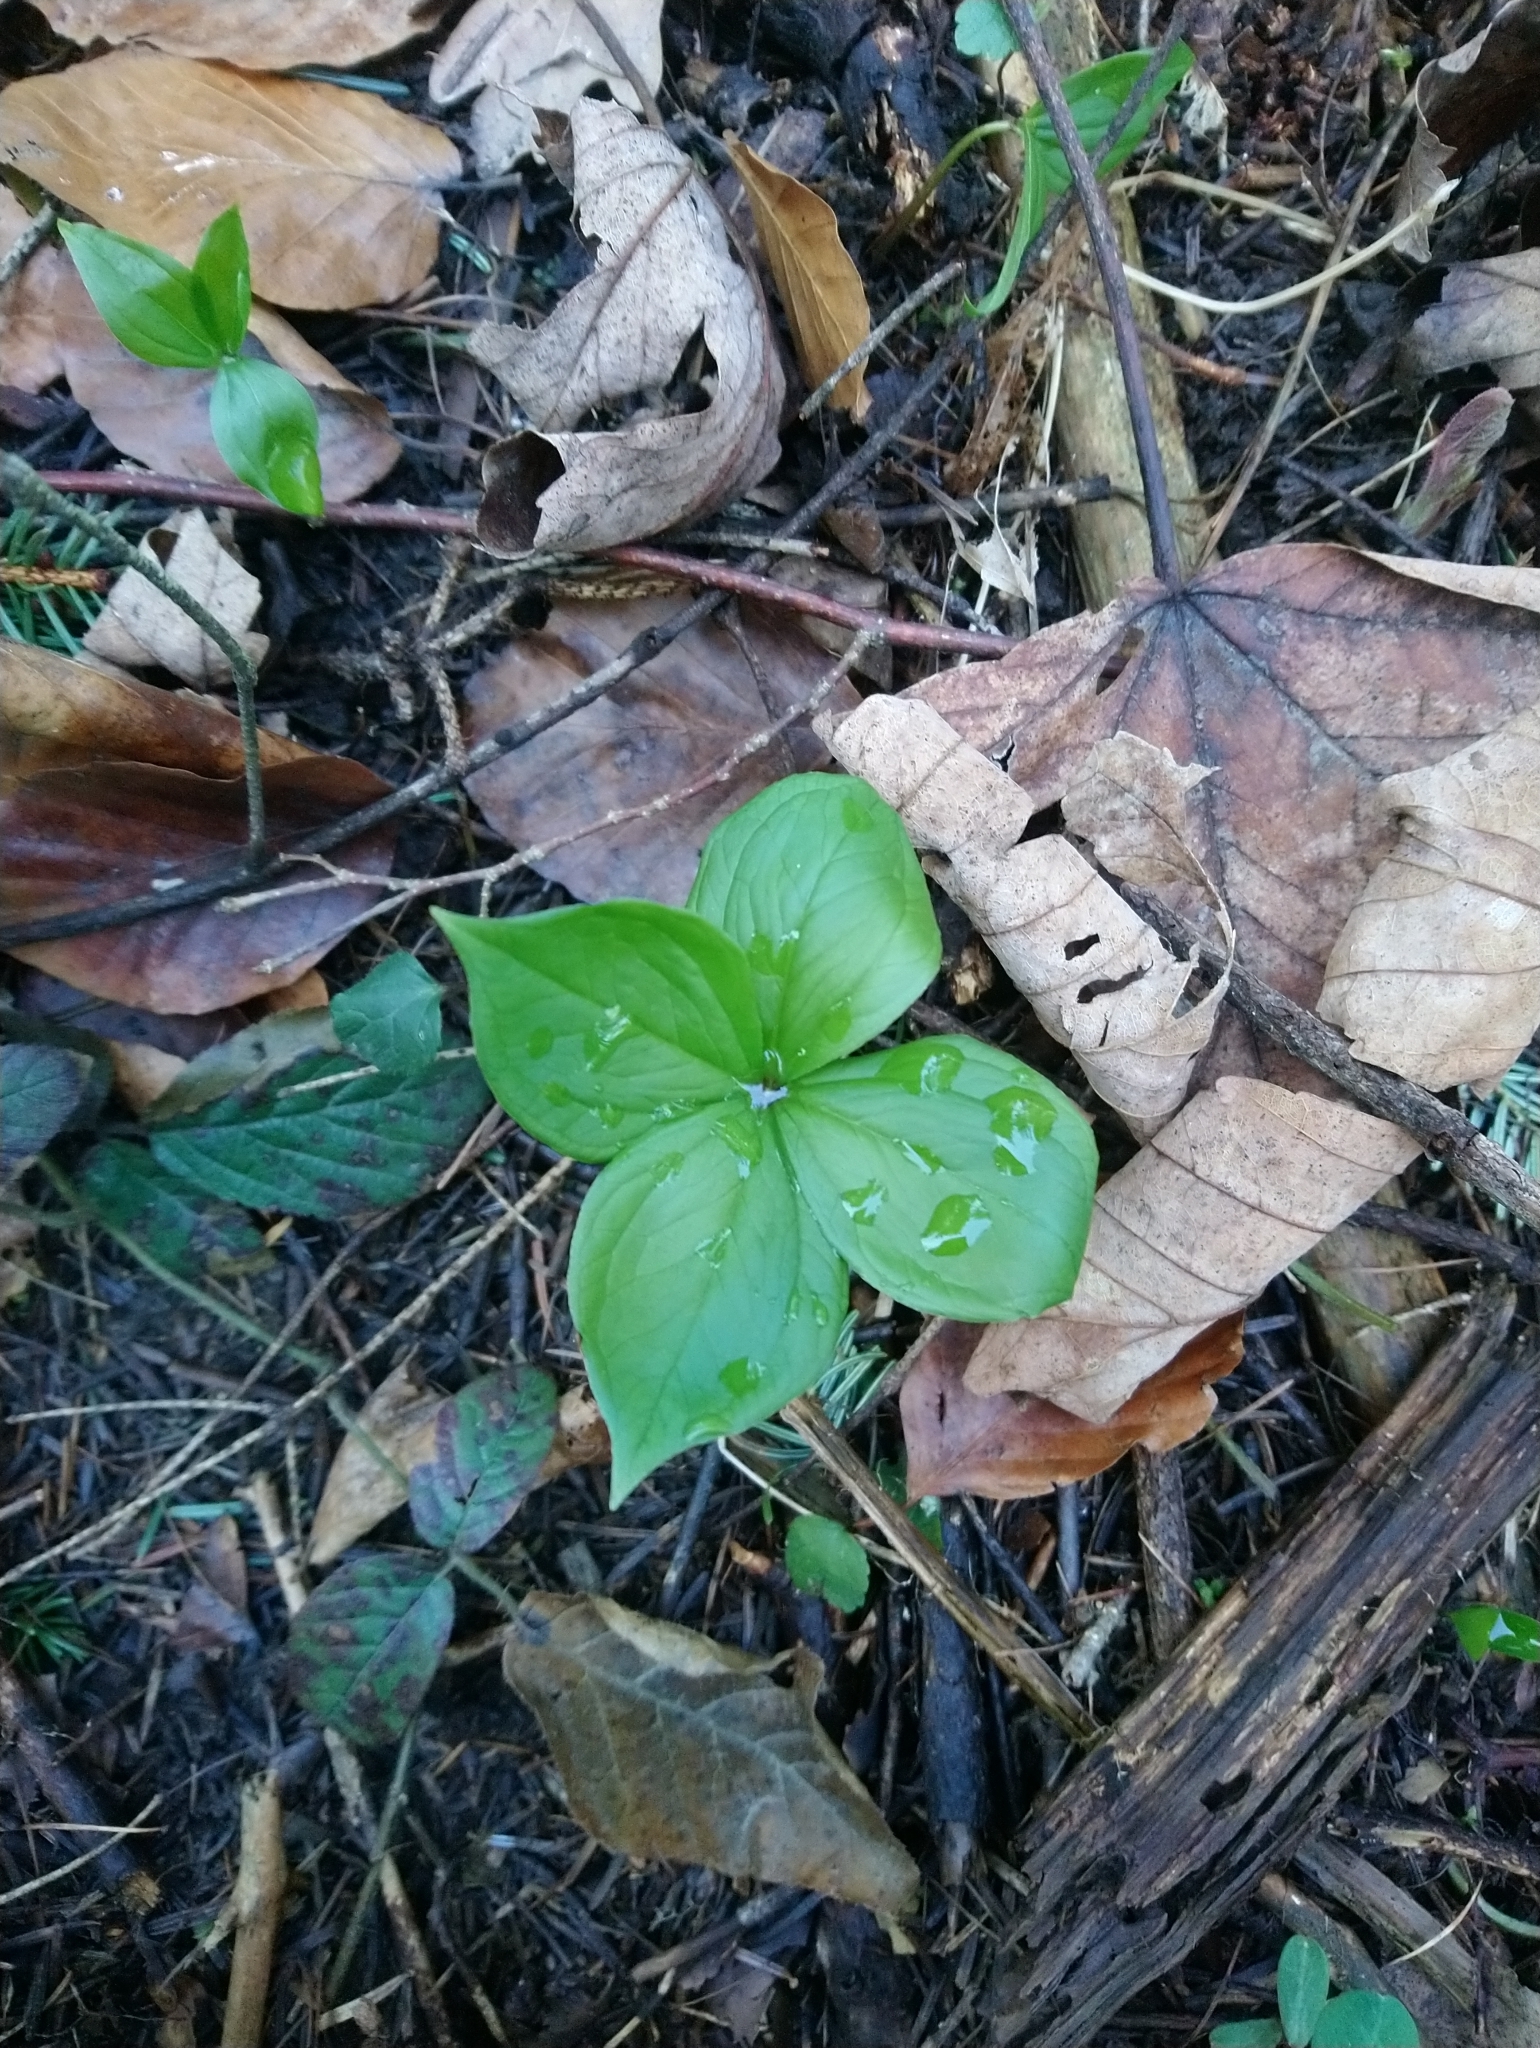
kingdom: Plantae
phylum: Tracheophyta
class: Liliopsida
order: Liliales
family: Melanthiaceae
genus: Paris
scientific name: Paris quadrifolia
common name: Herb-paris
